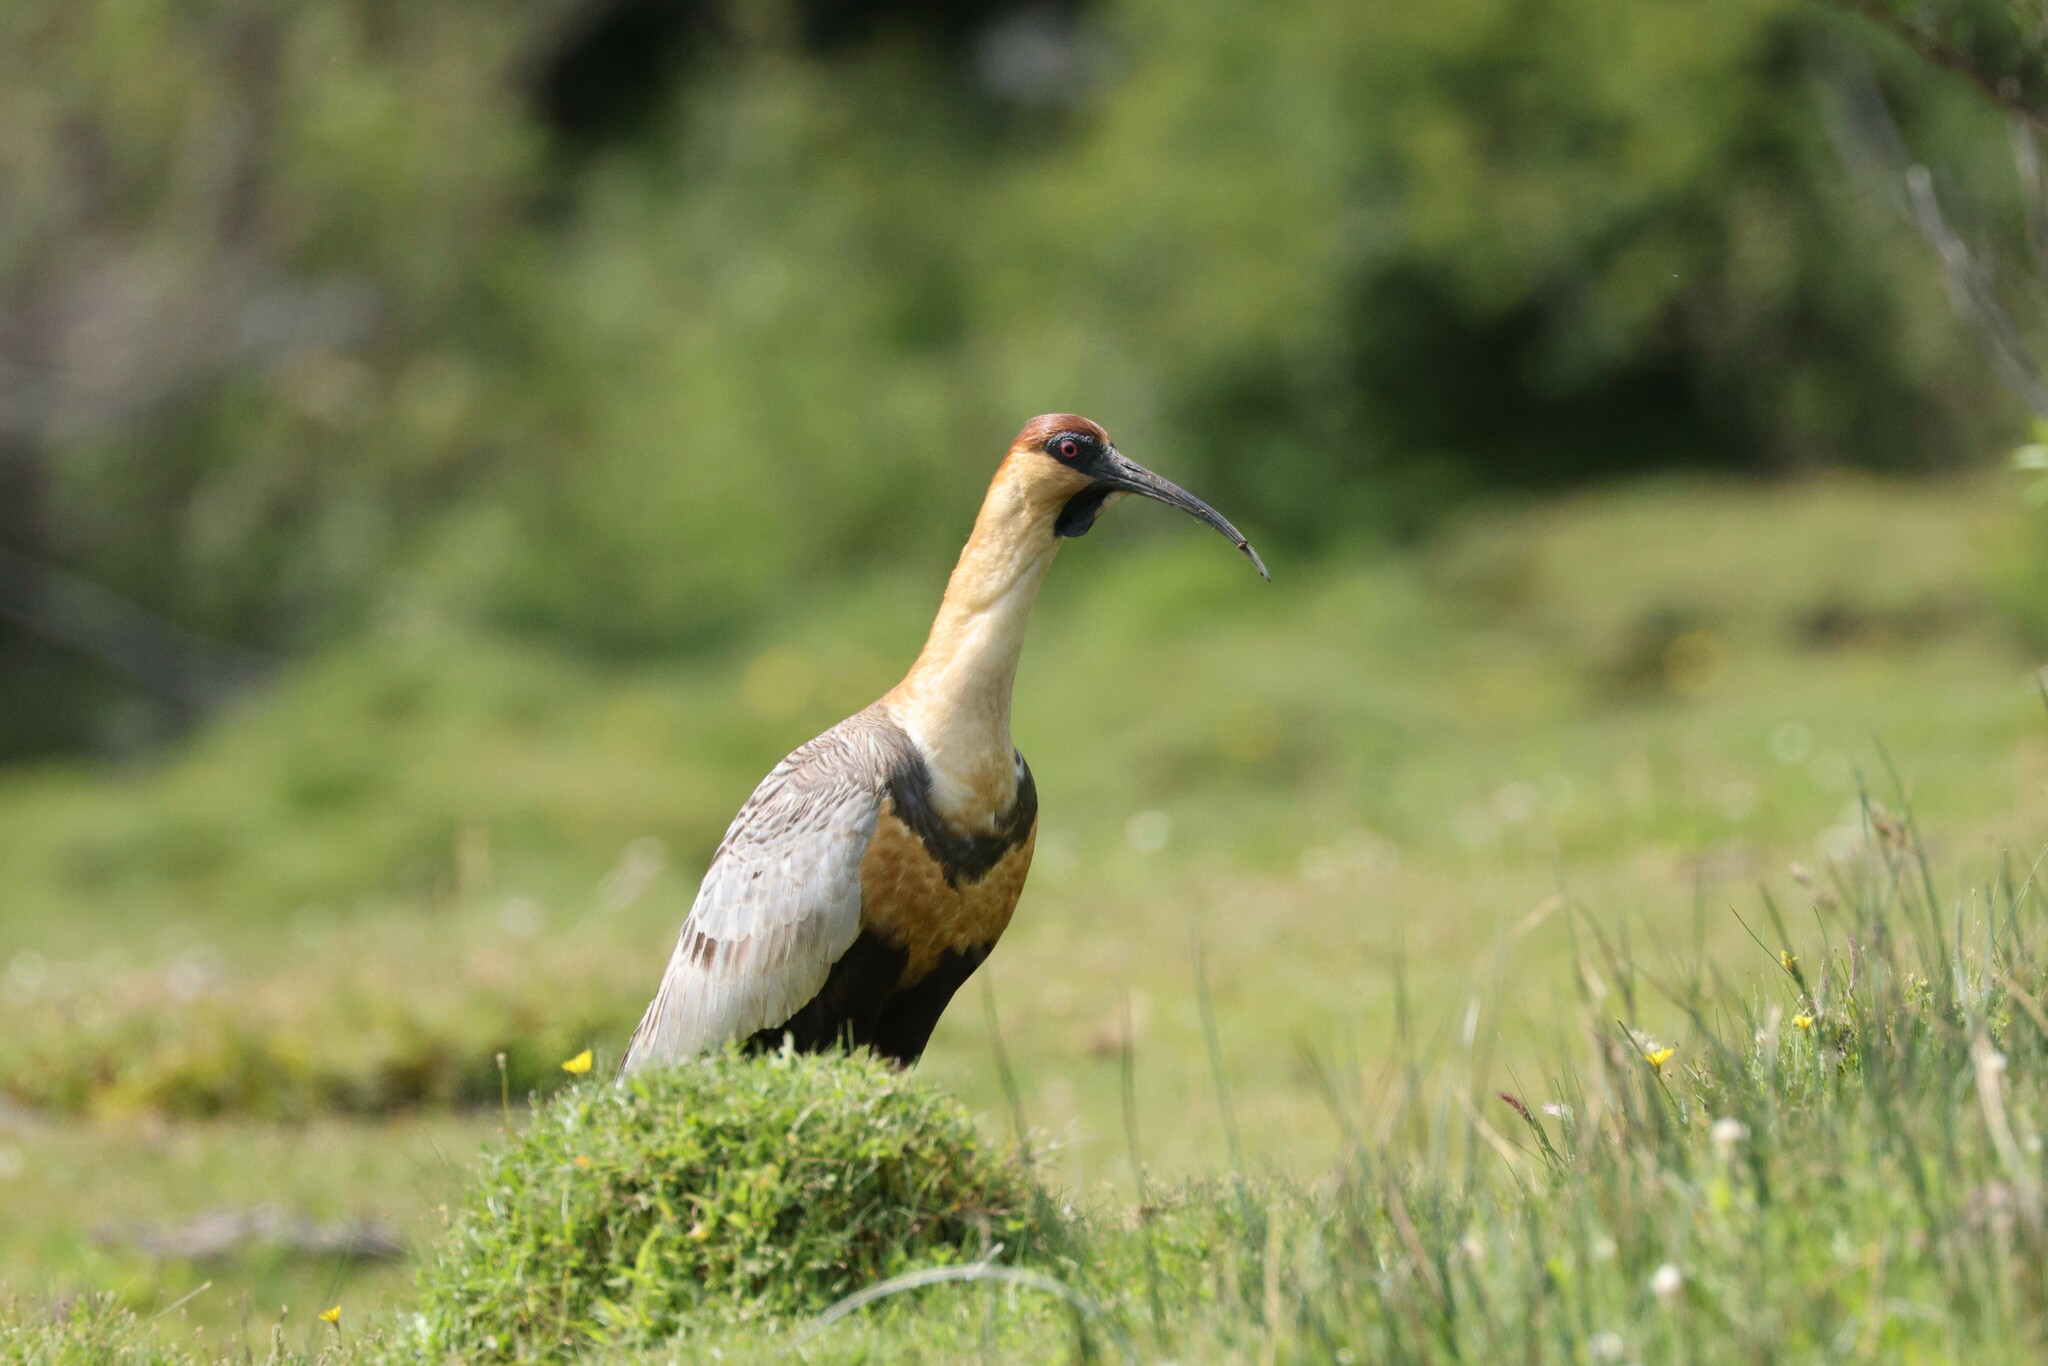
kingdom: Animalia
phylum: Chordata
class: Aves
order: Pelecaniformes
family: Threskiornithidae
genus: Theristicus
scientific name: Theristicus melanopis
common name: Black-faced ibis
